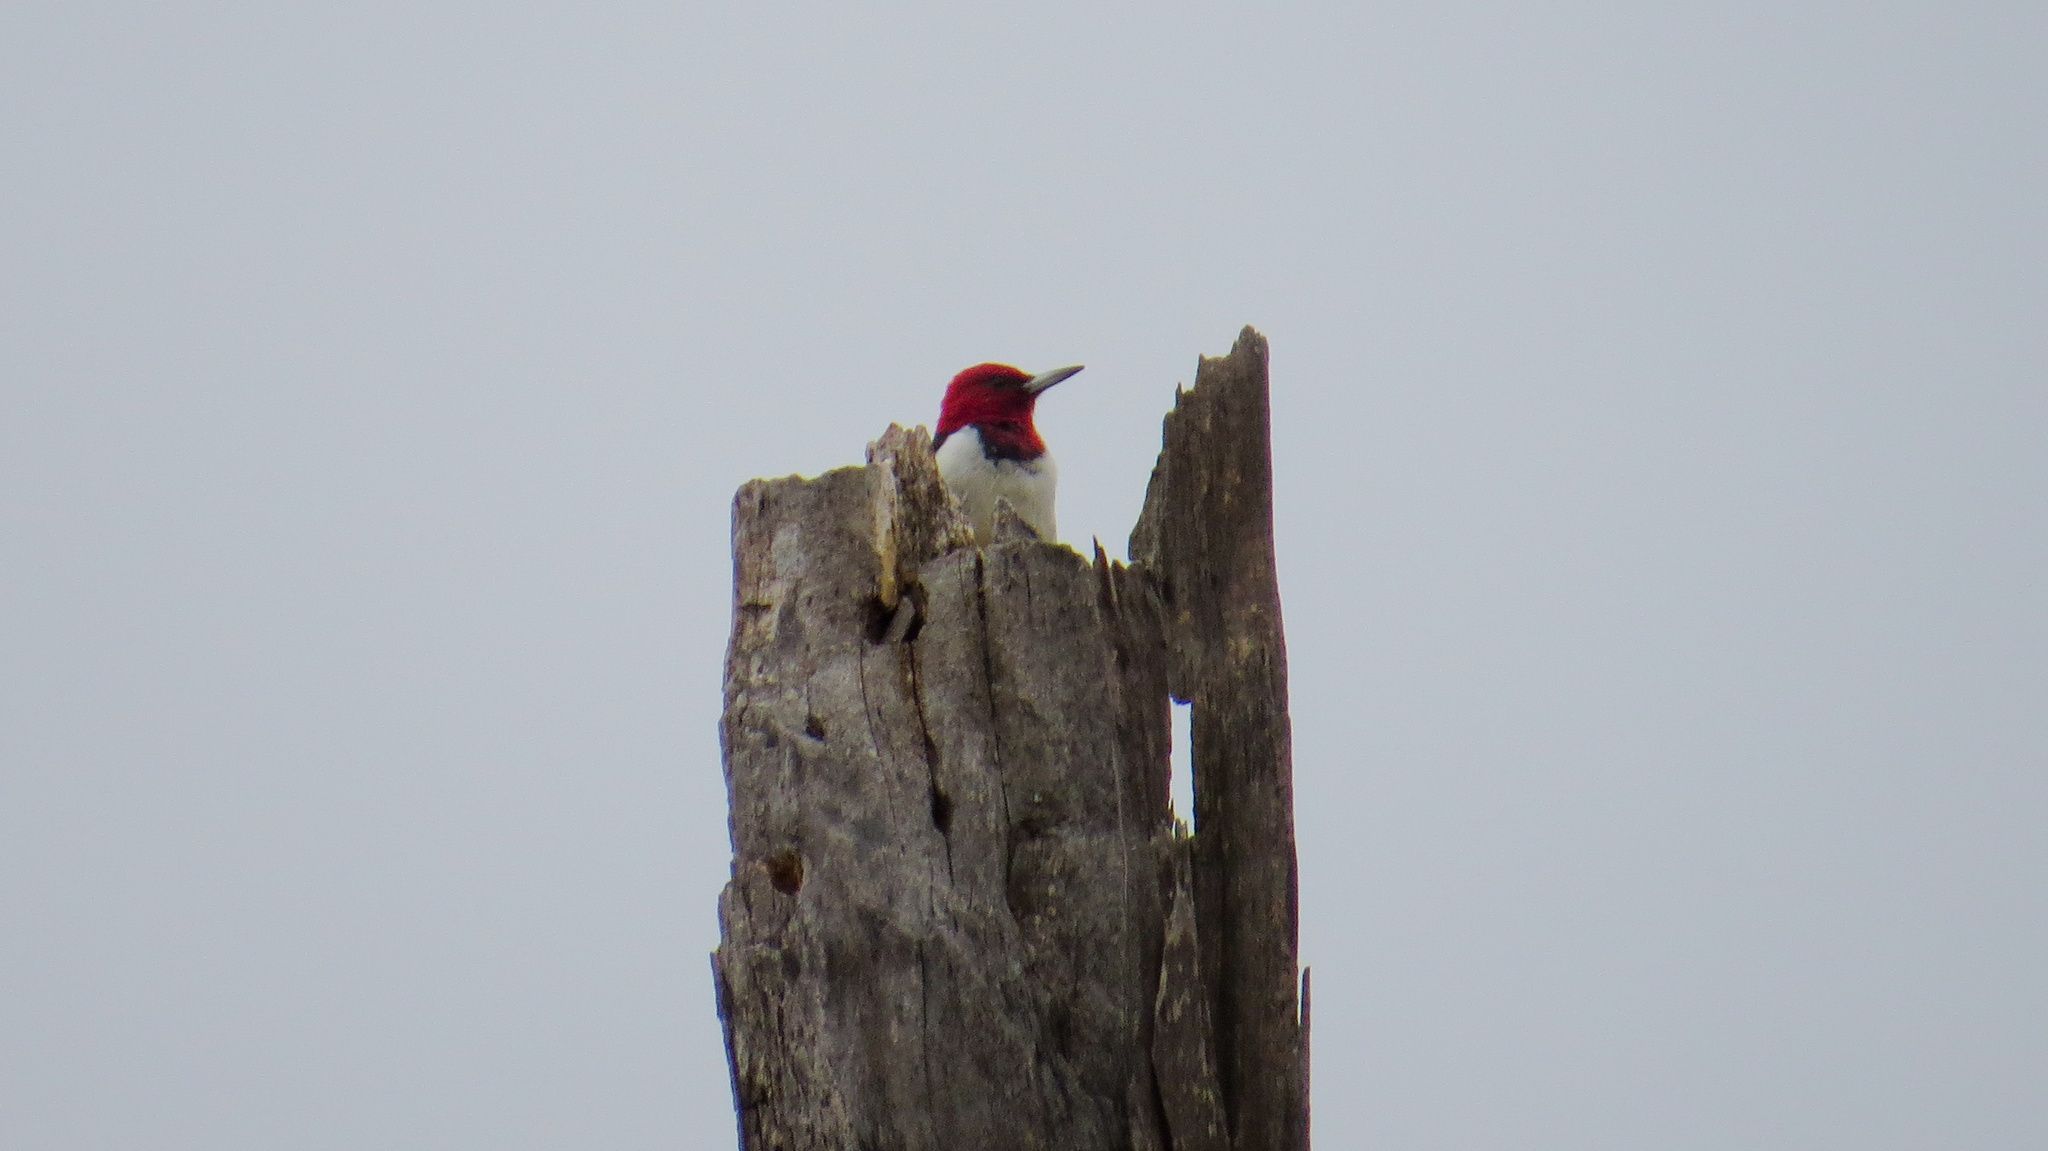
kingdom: Animalia
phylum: Chordata
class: Aves
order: Piciformes
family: Picidae
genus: Melanerpes
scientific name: Melanerpes erythrocephalus
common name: Red-headed woodpecker
